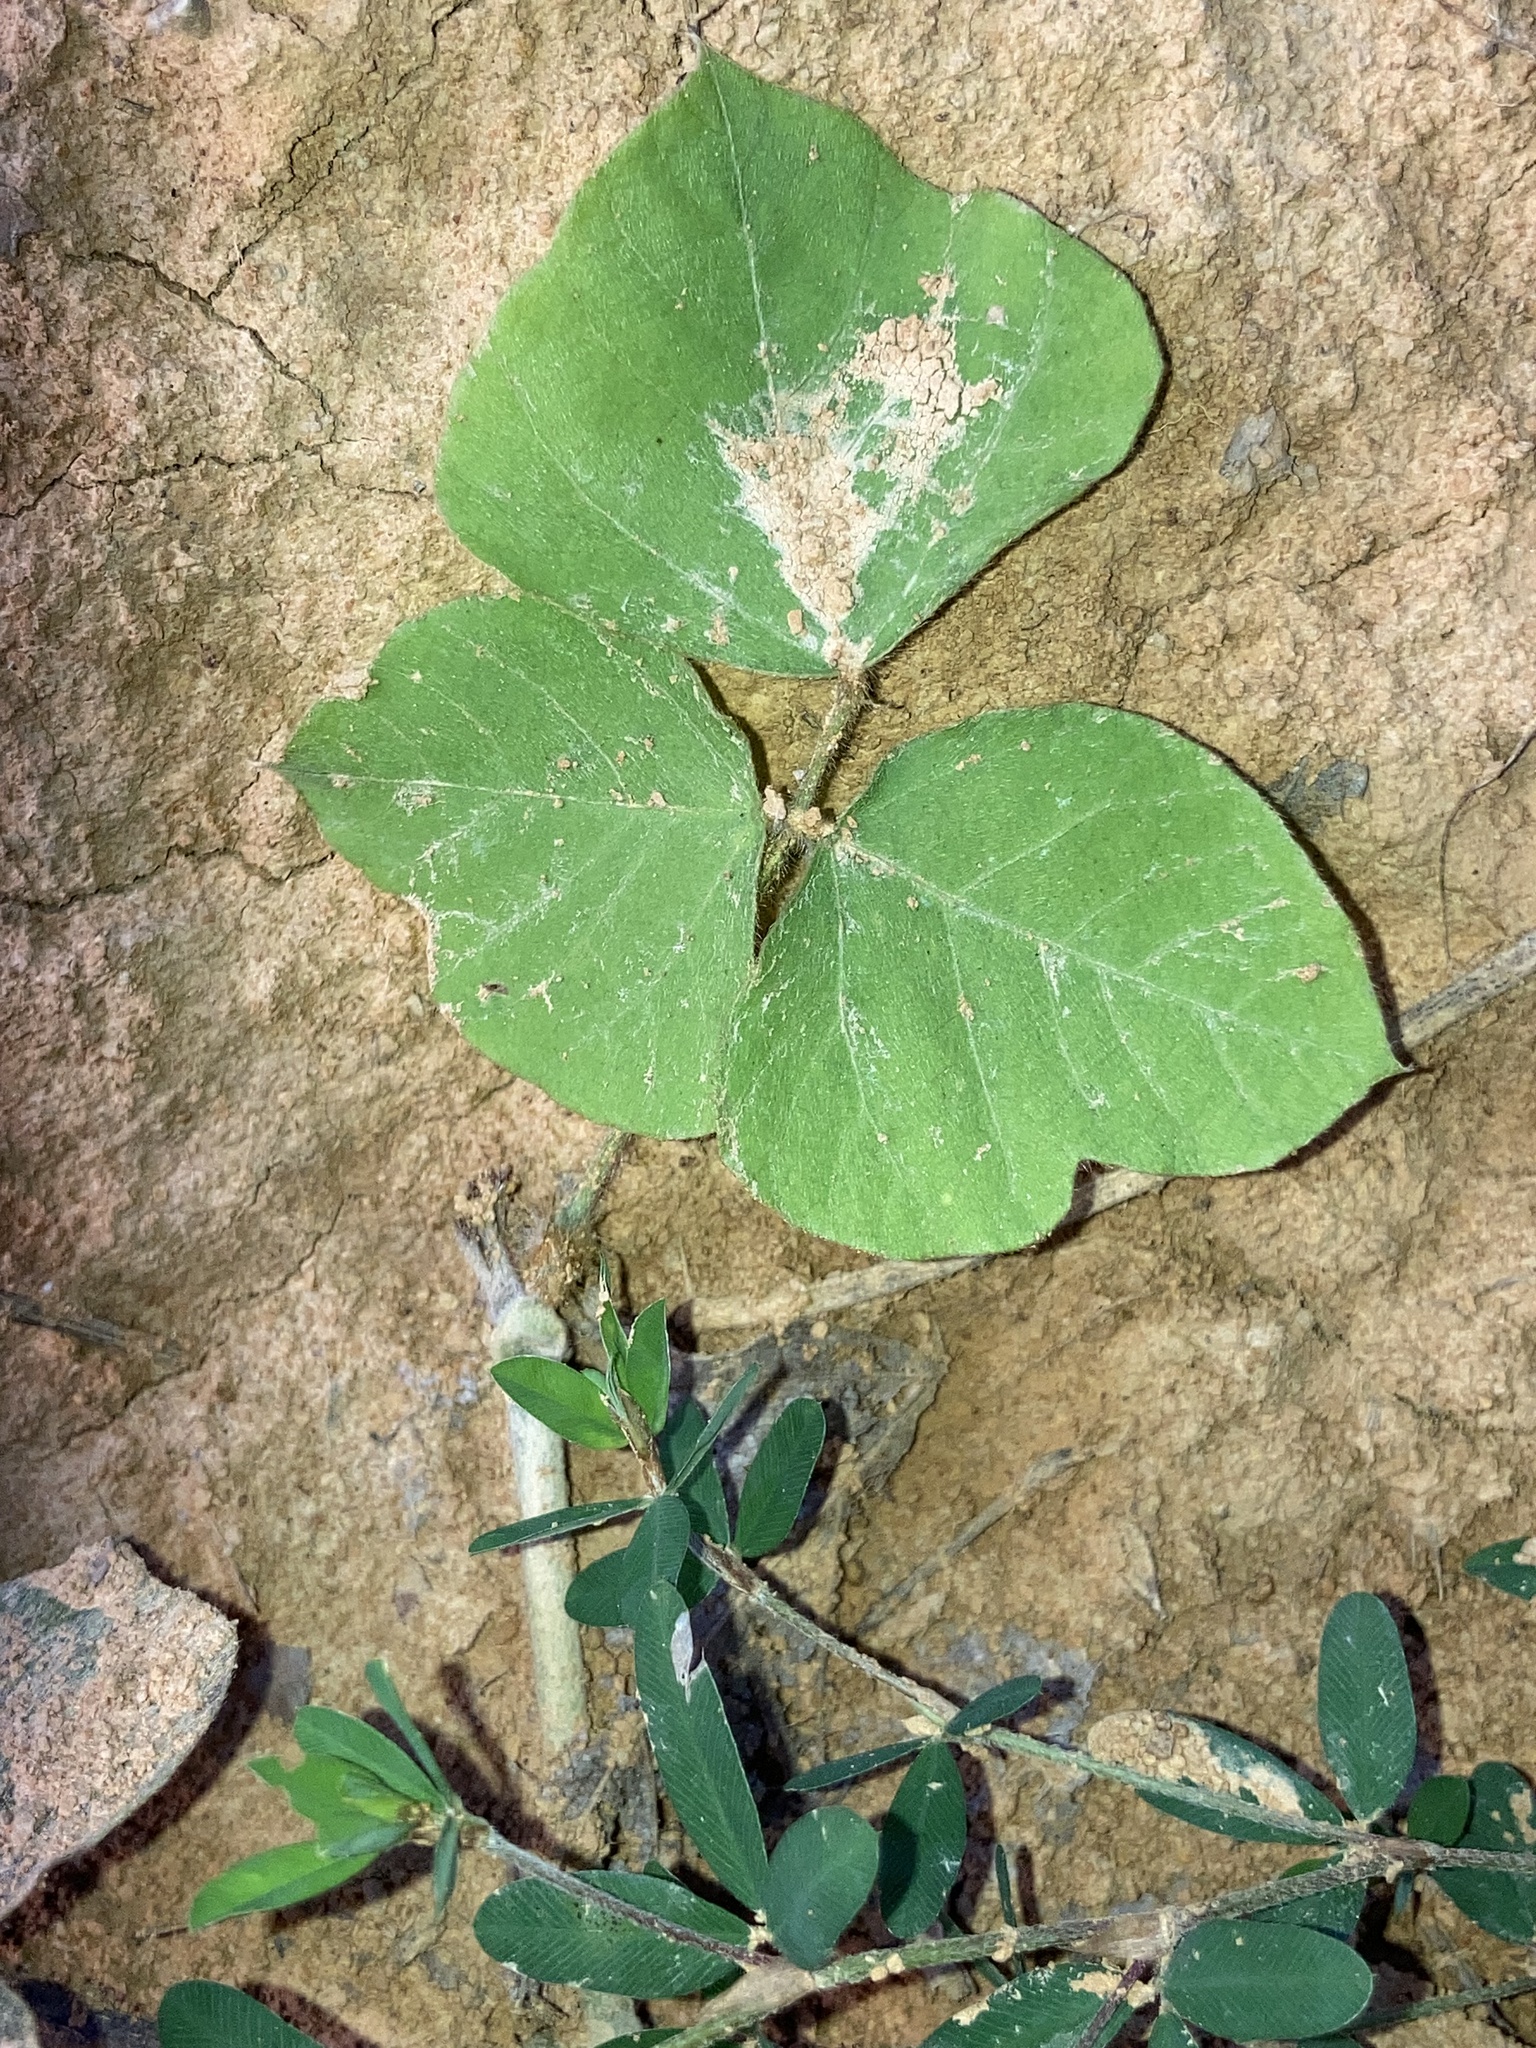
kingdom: Plantae
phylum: Tracheophyta
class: Magnoliopsida
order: Fabales
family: Fabaceae
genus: Pueraria
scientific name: Pueraria montana
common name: Kudzu
